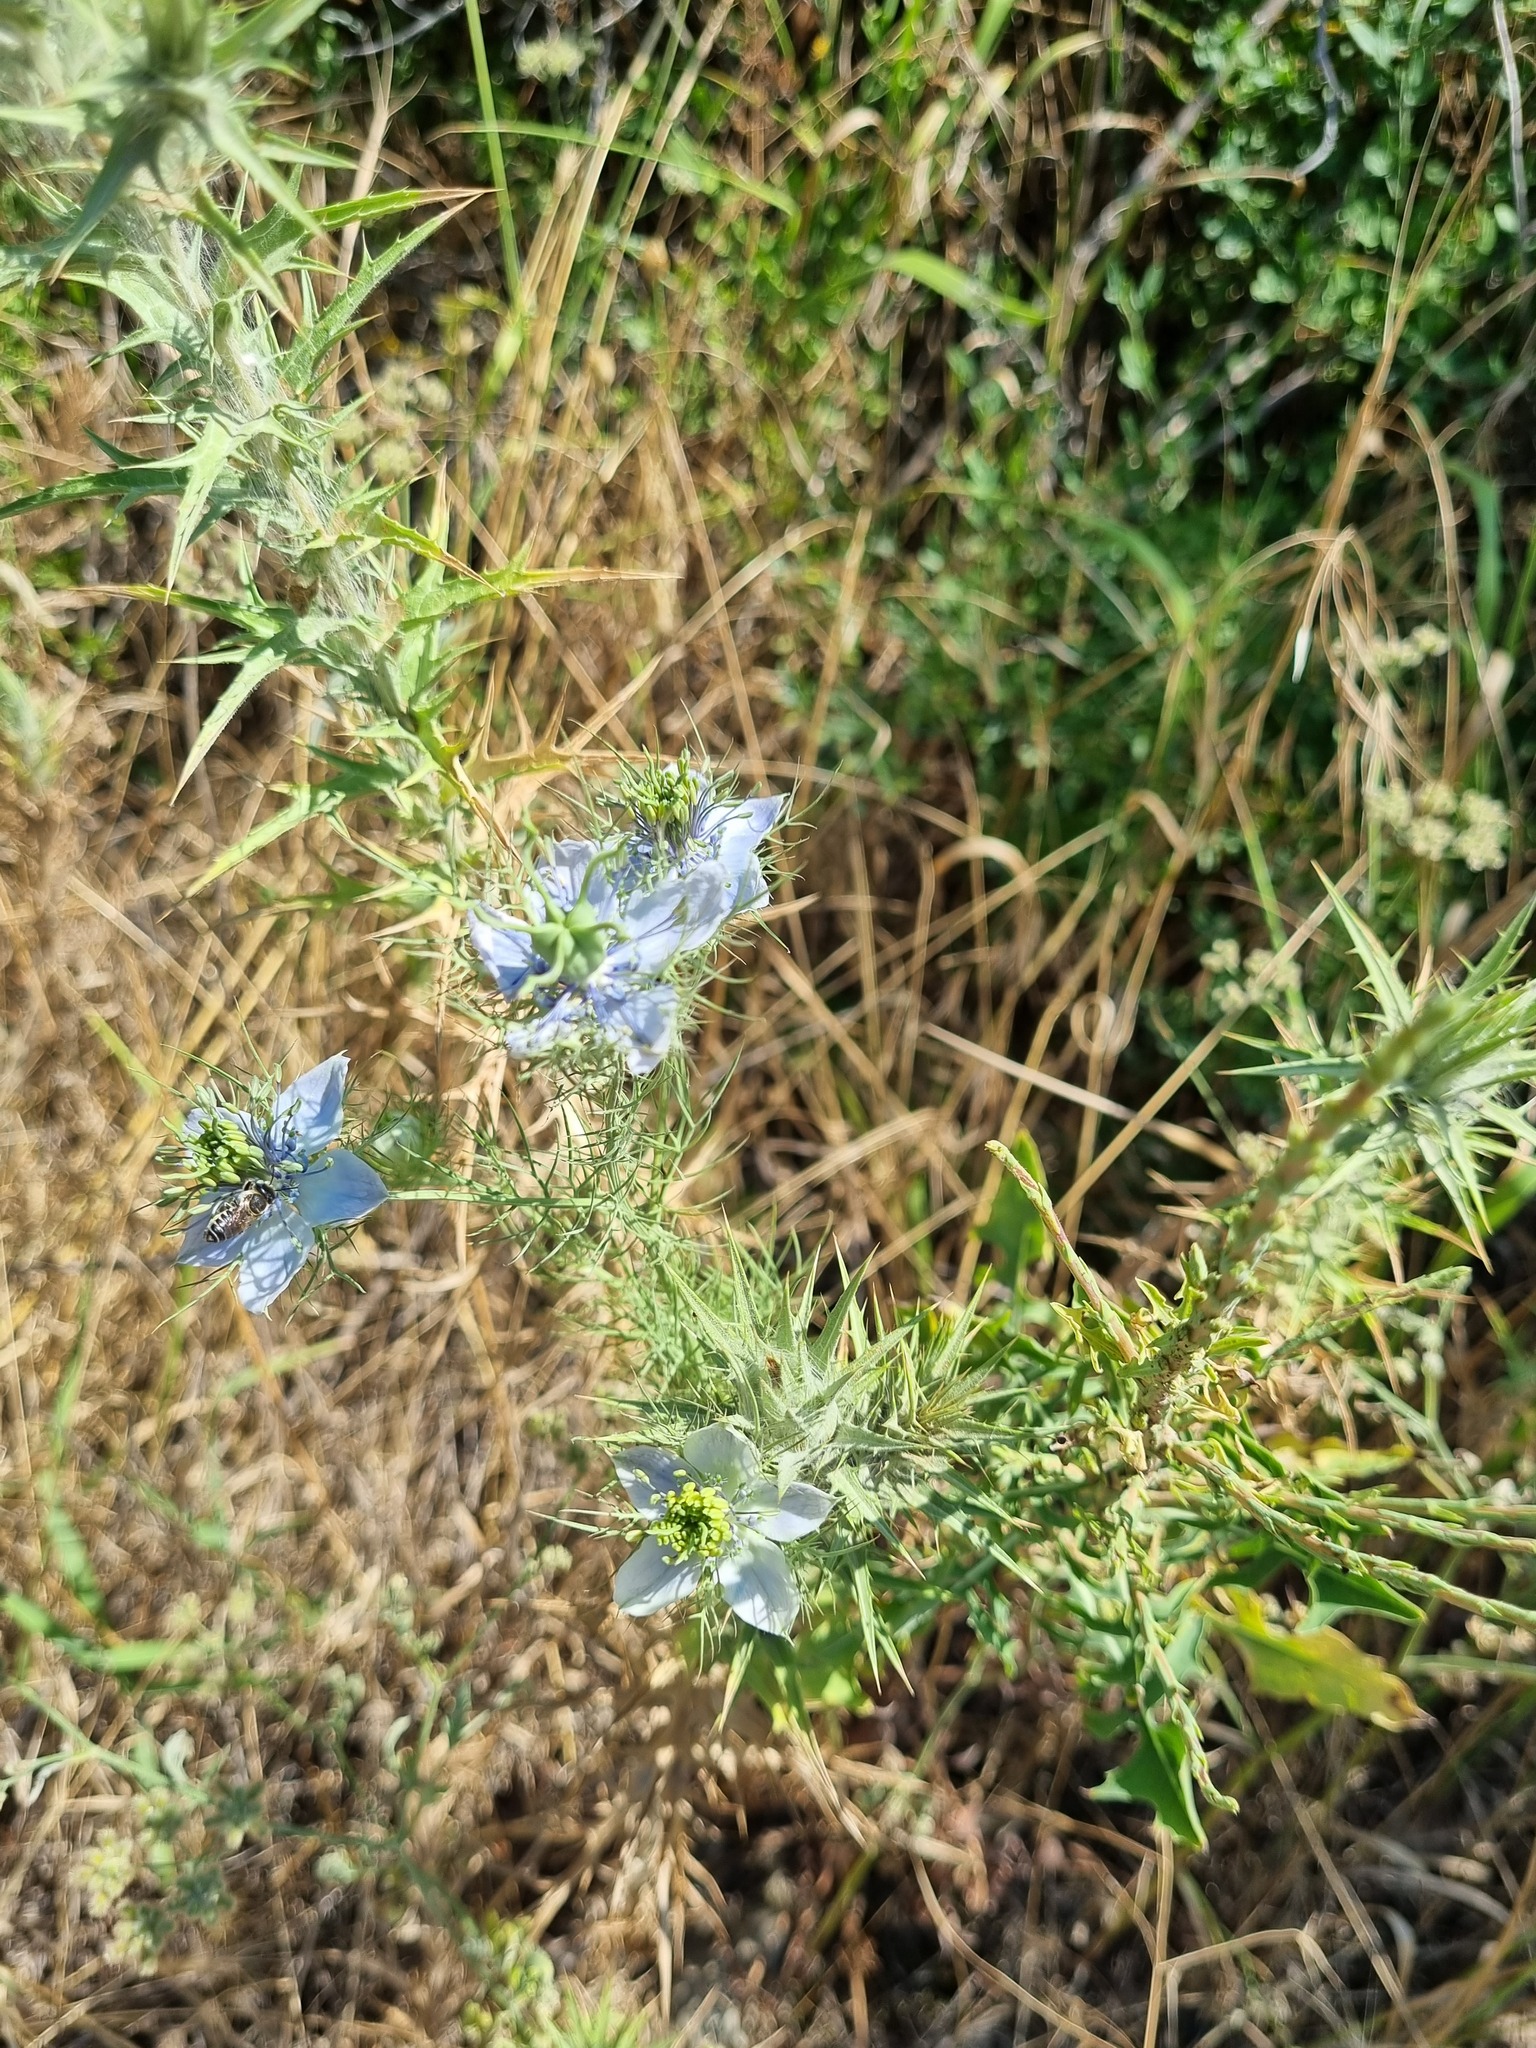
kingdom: Plantae
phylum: Tracheophyta
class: Magnoliopsida
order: Ranunculales
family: Ranunculaceae
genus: Nigella
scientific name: Nigella damascena
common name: Love-in-a-mist
